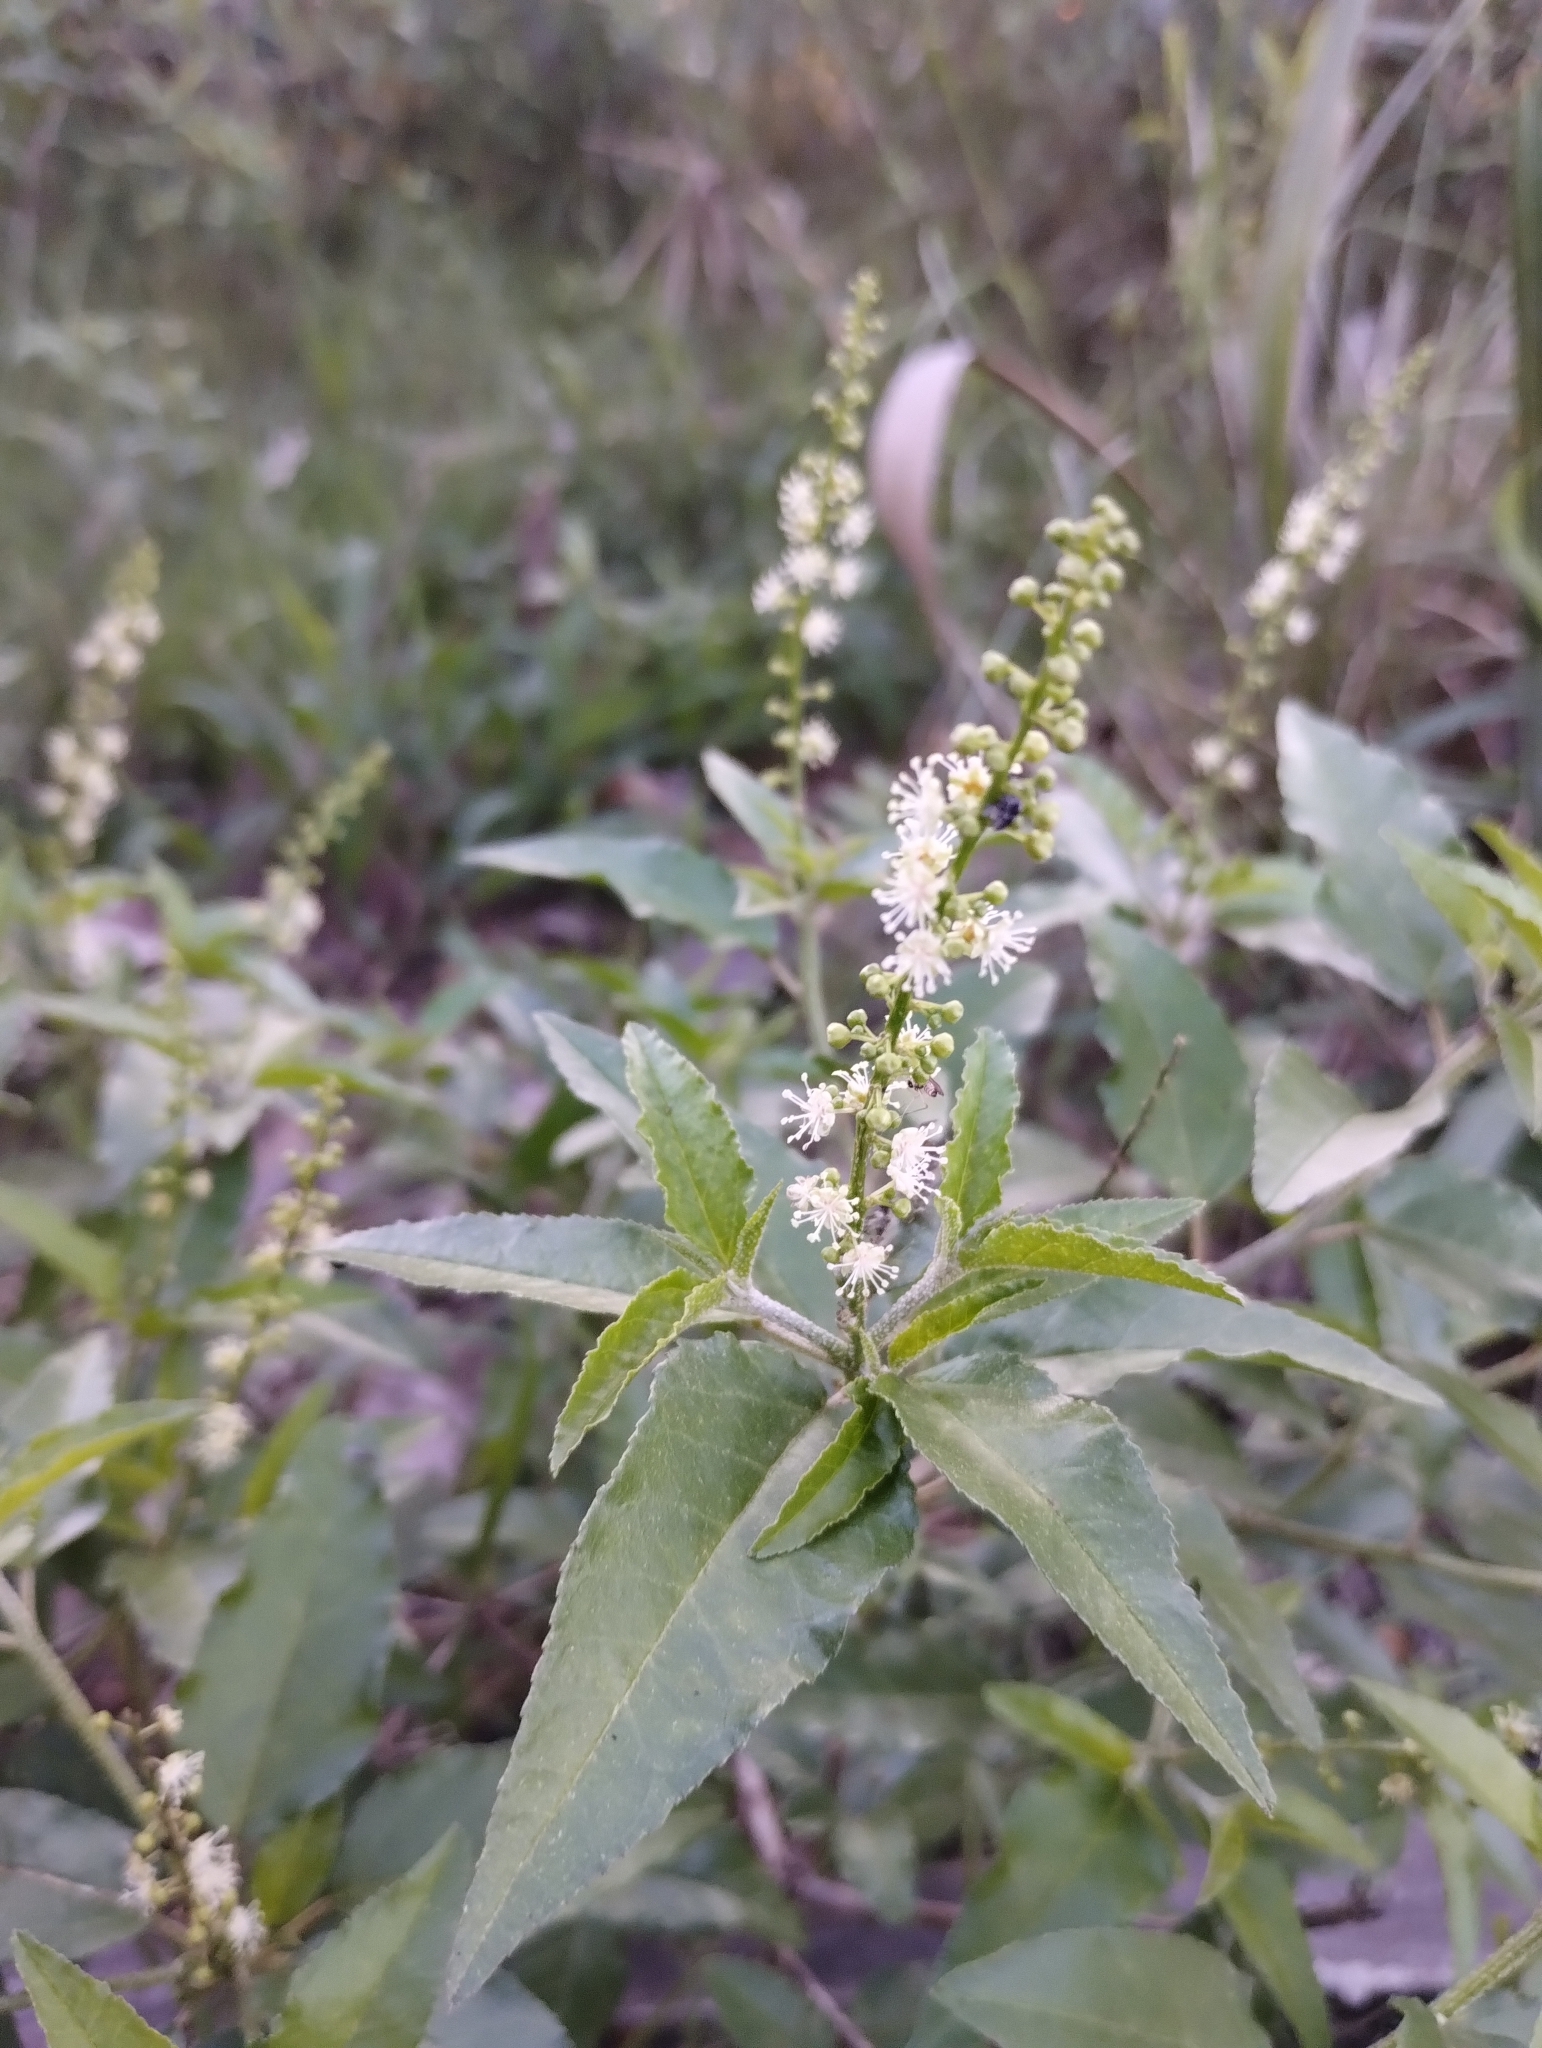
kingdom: Plantae
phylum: Tracheophyta
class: Magnoliopsida
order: Malpighiales
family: Euphorbiaceae
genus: Croton
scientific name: Croton bonplandianus
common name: Bonpland's croton
